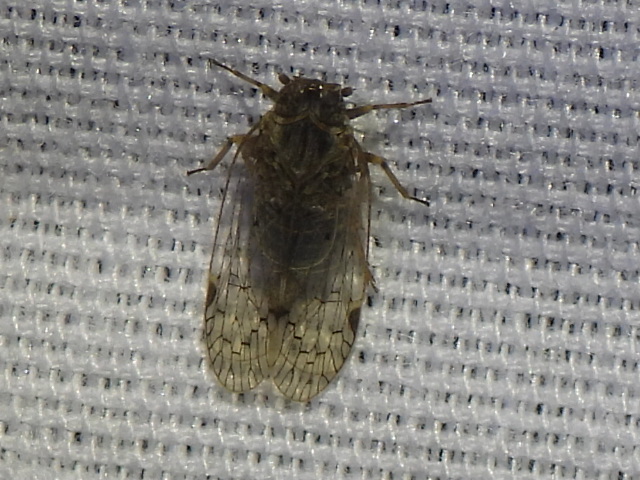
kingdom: Animalia
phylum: Arthropoda
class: Insecta
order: Hemiptera
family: Cixiidae
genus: Melanoliarus
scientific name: Melanoliarus aridus
